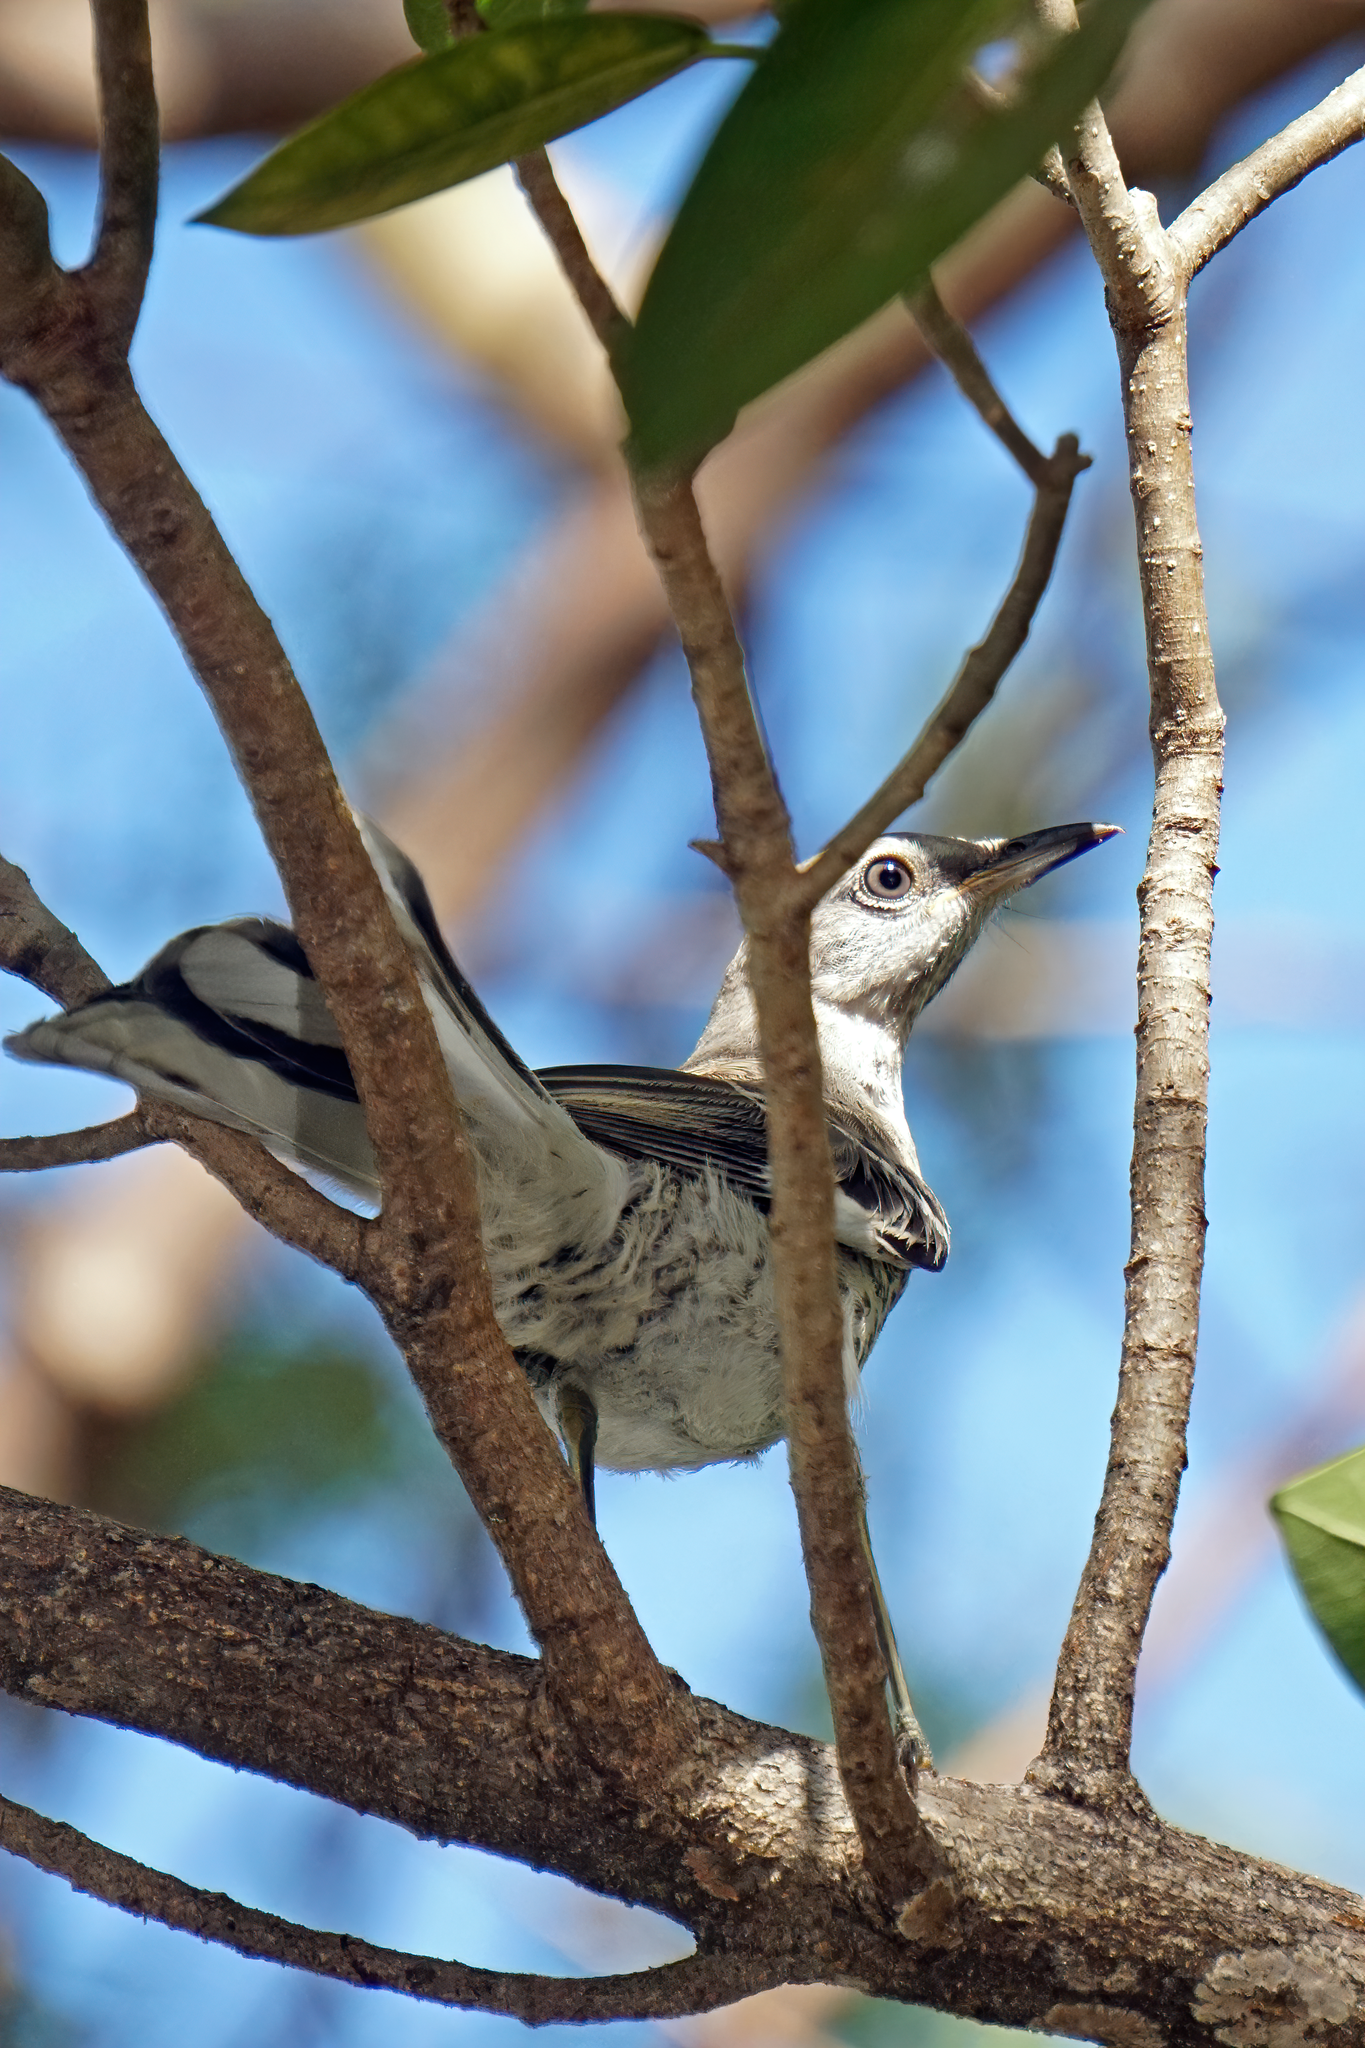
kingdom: Animalia
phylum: Chordata
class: Aves
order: Passeriformes
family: Mimidae
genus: Mimus
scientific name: Mimus polyglottos
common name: Northern mockingbird
